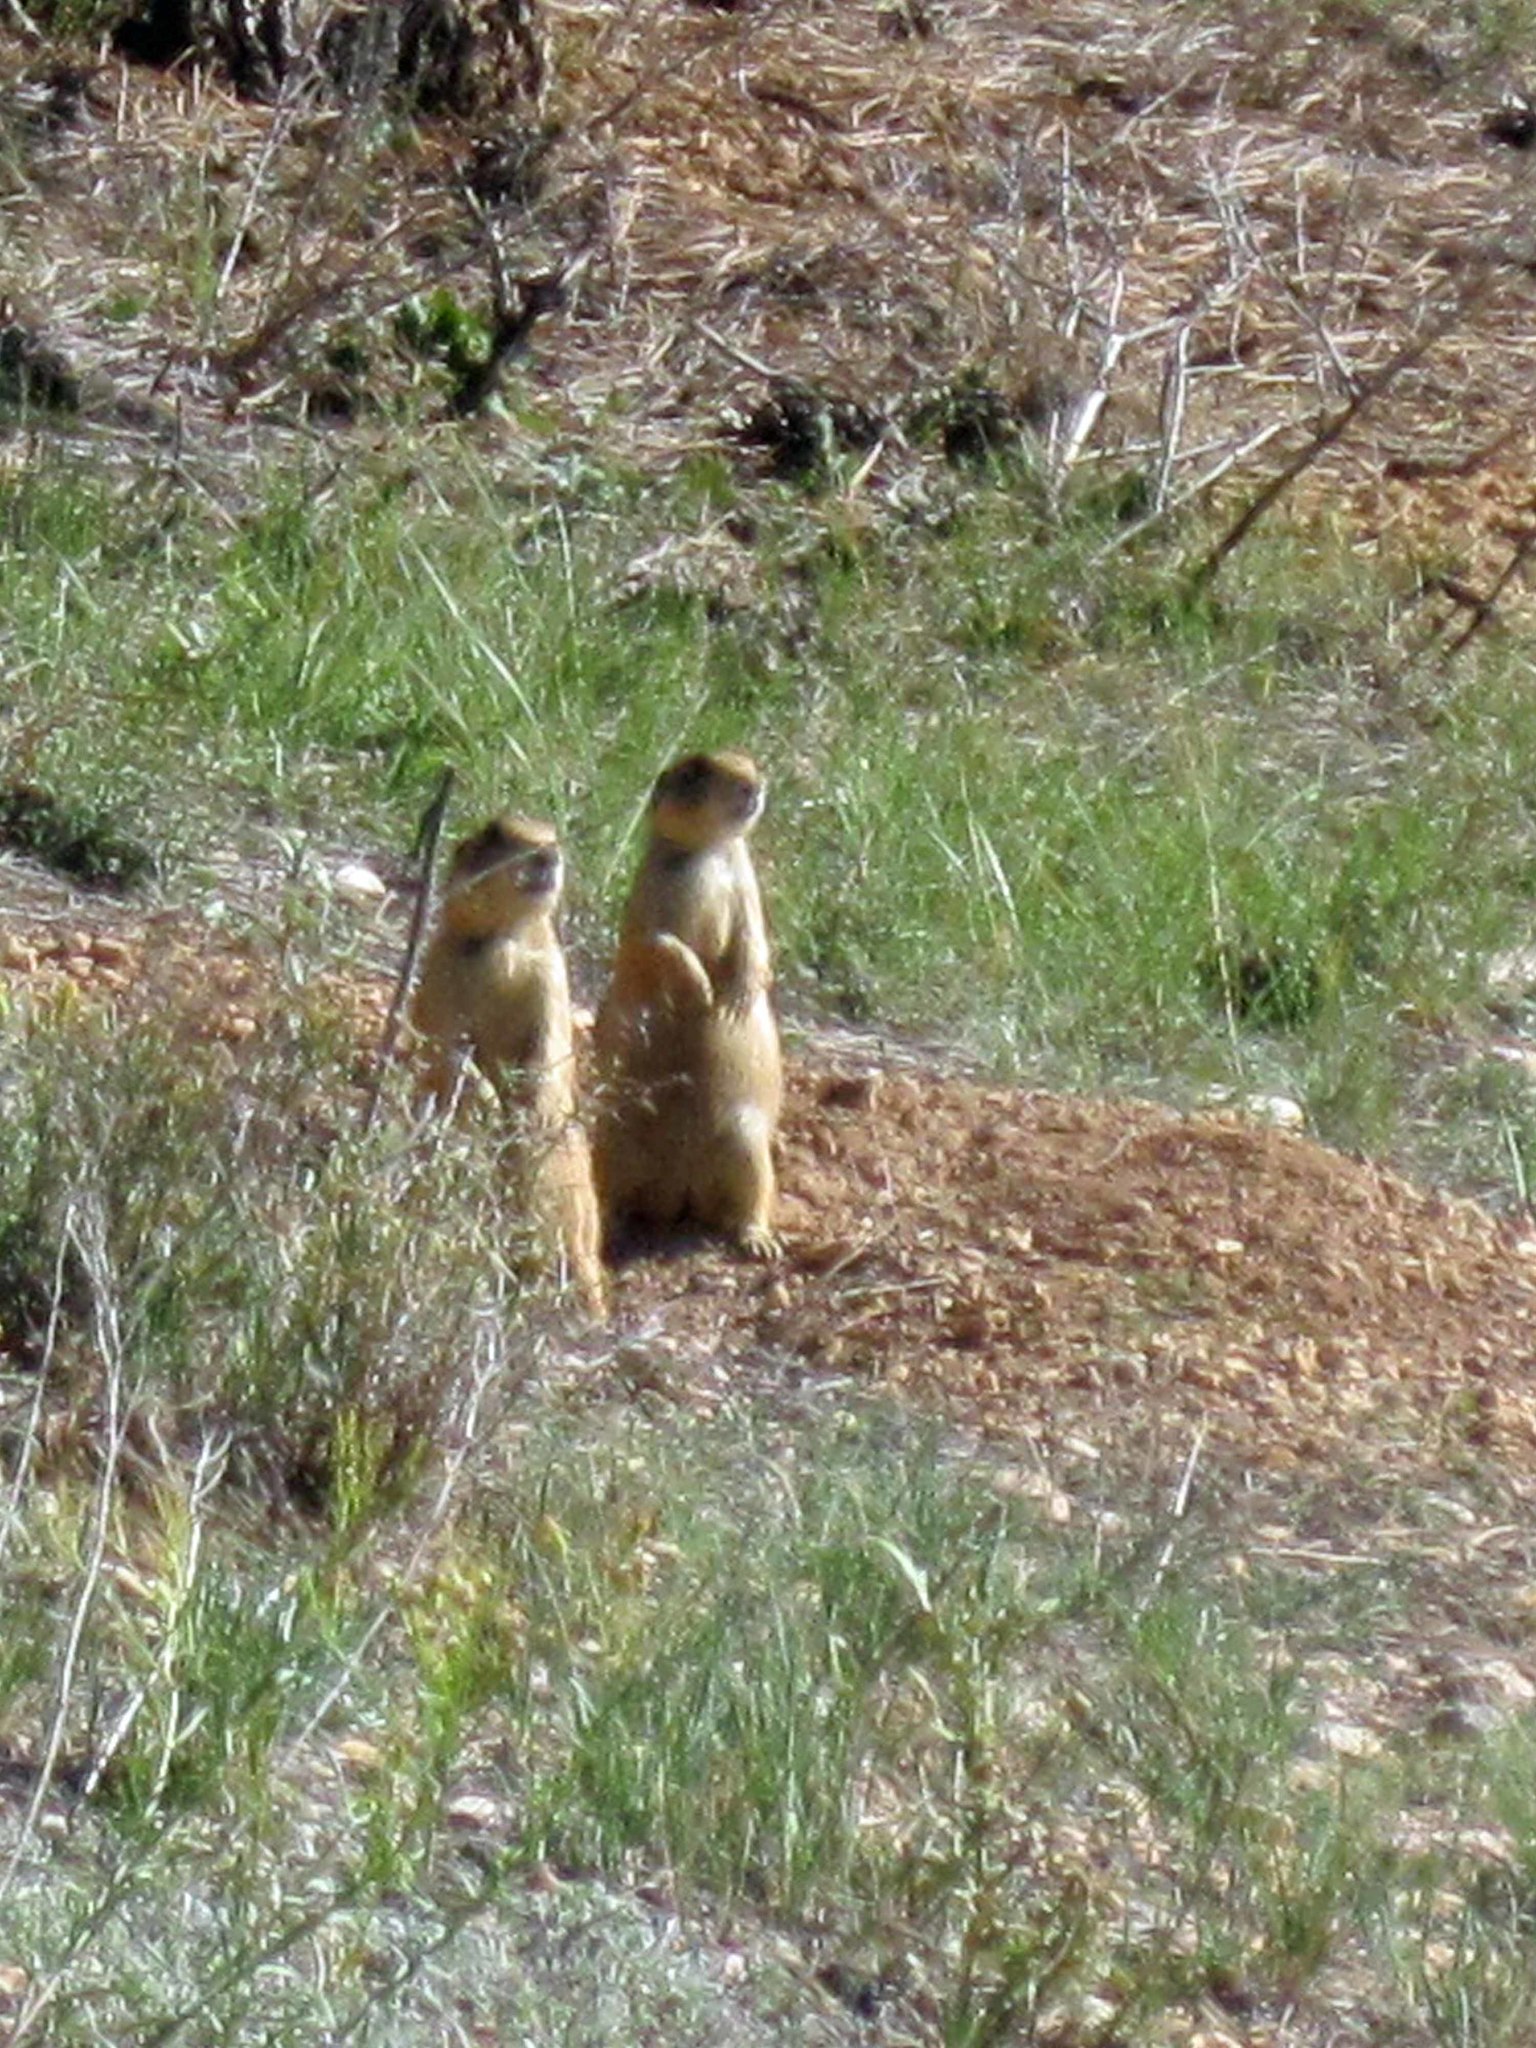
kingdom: Animalia
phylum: Chordata
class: Mammalia
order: Rodentia
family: Sciuridae
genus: Cynomys
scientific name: Cynomys parvidens
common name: Utah prairie dog
